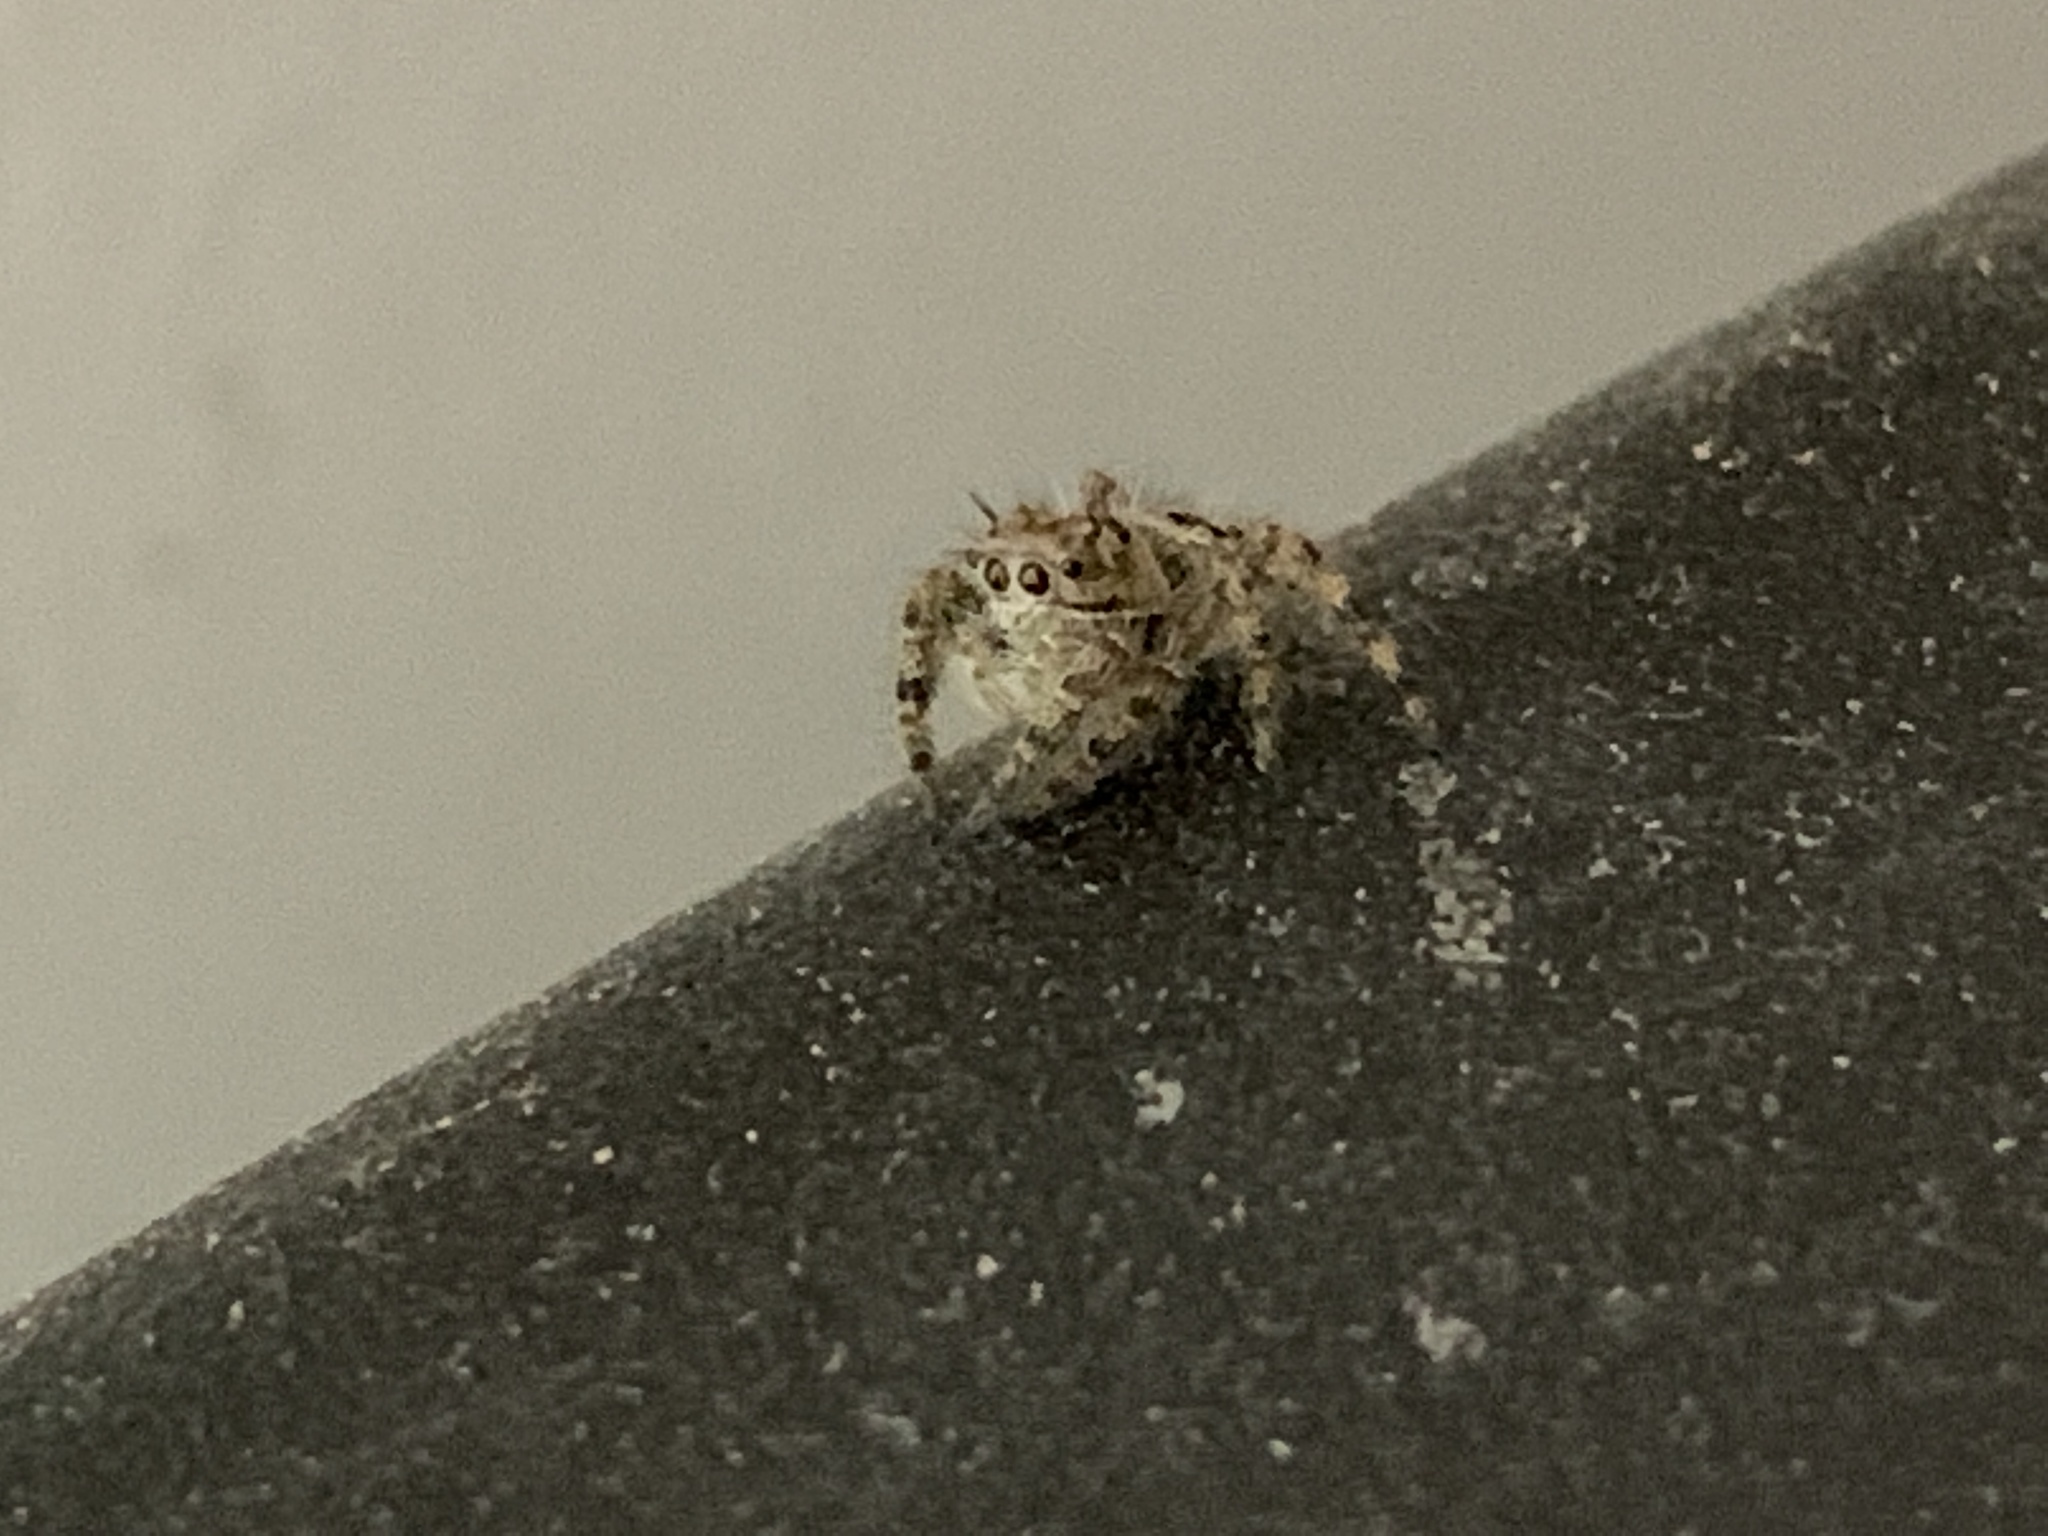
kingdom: Animalia
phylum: Arthropoda
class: Arachnida
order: Araneae
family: Salticidae
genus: Phidippus
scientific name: Phidippus putnami
